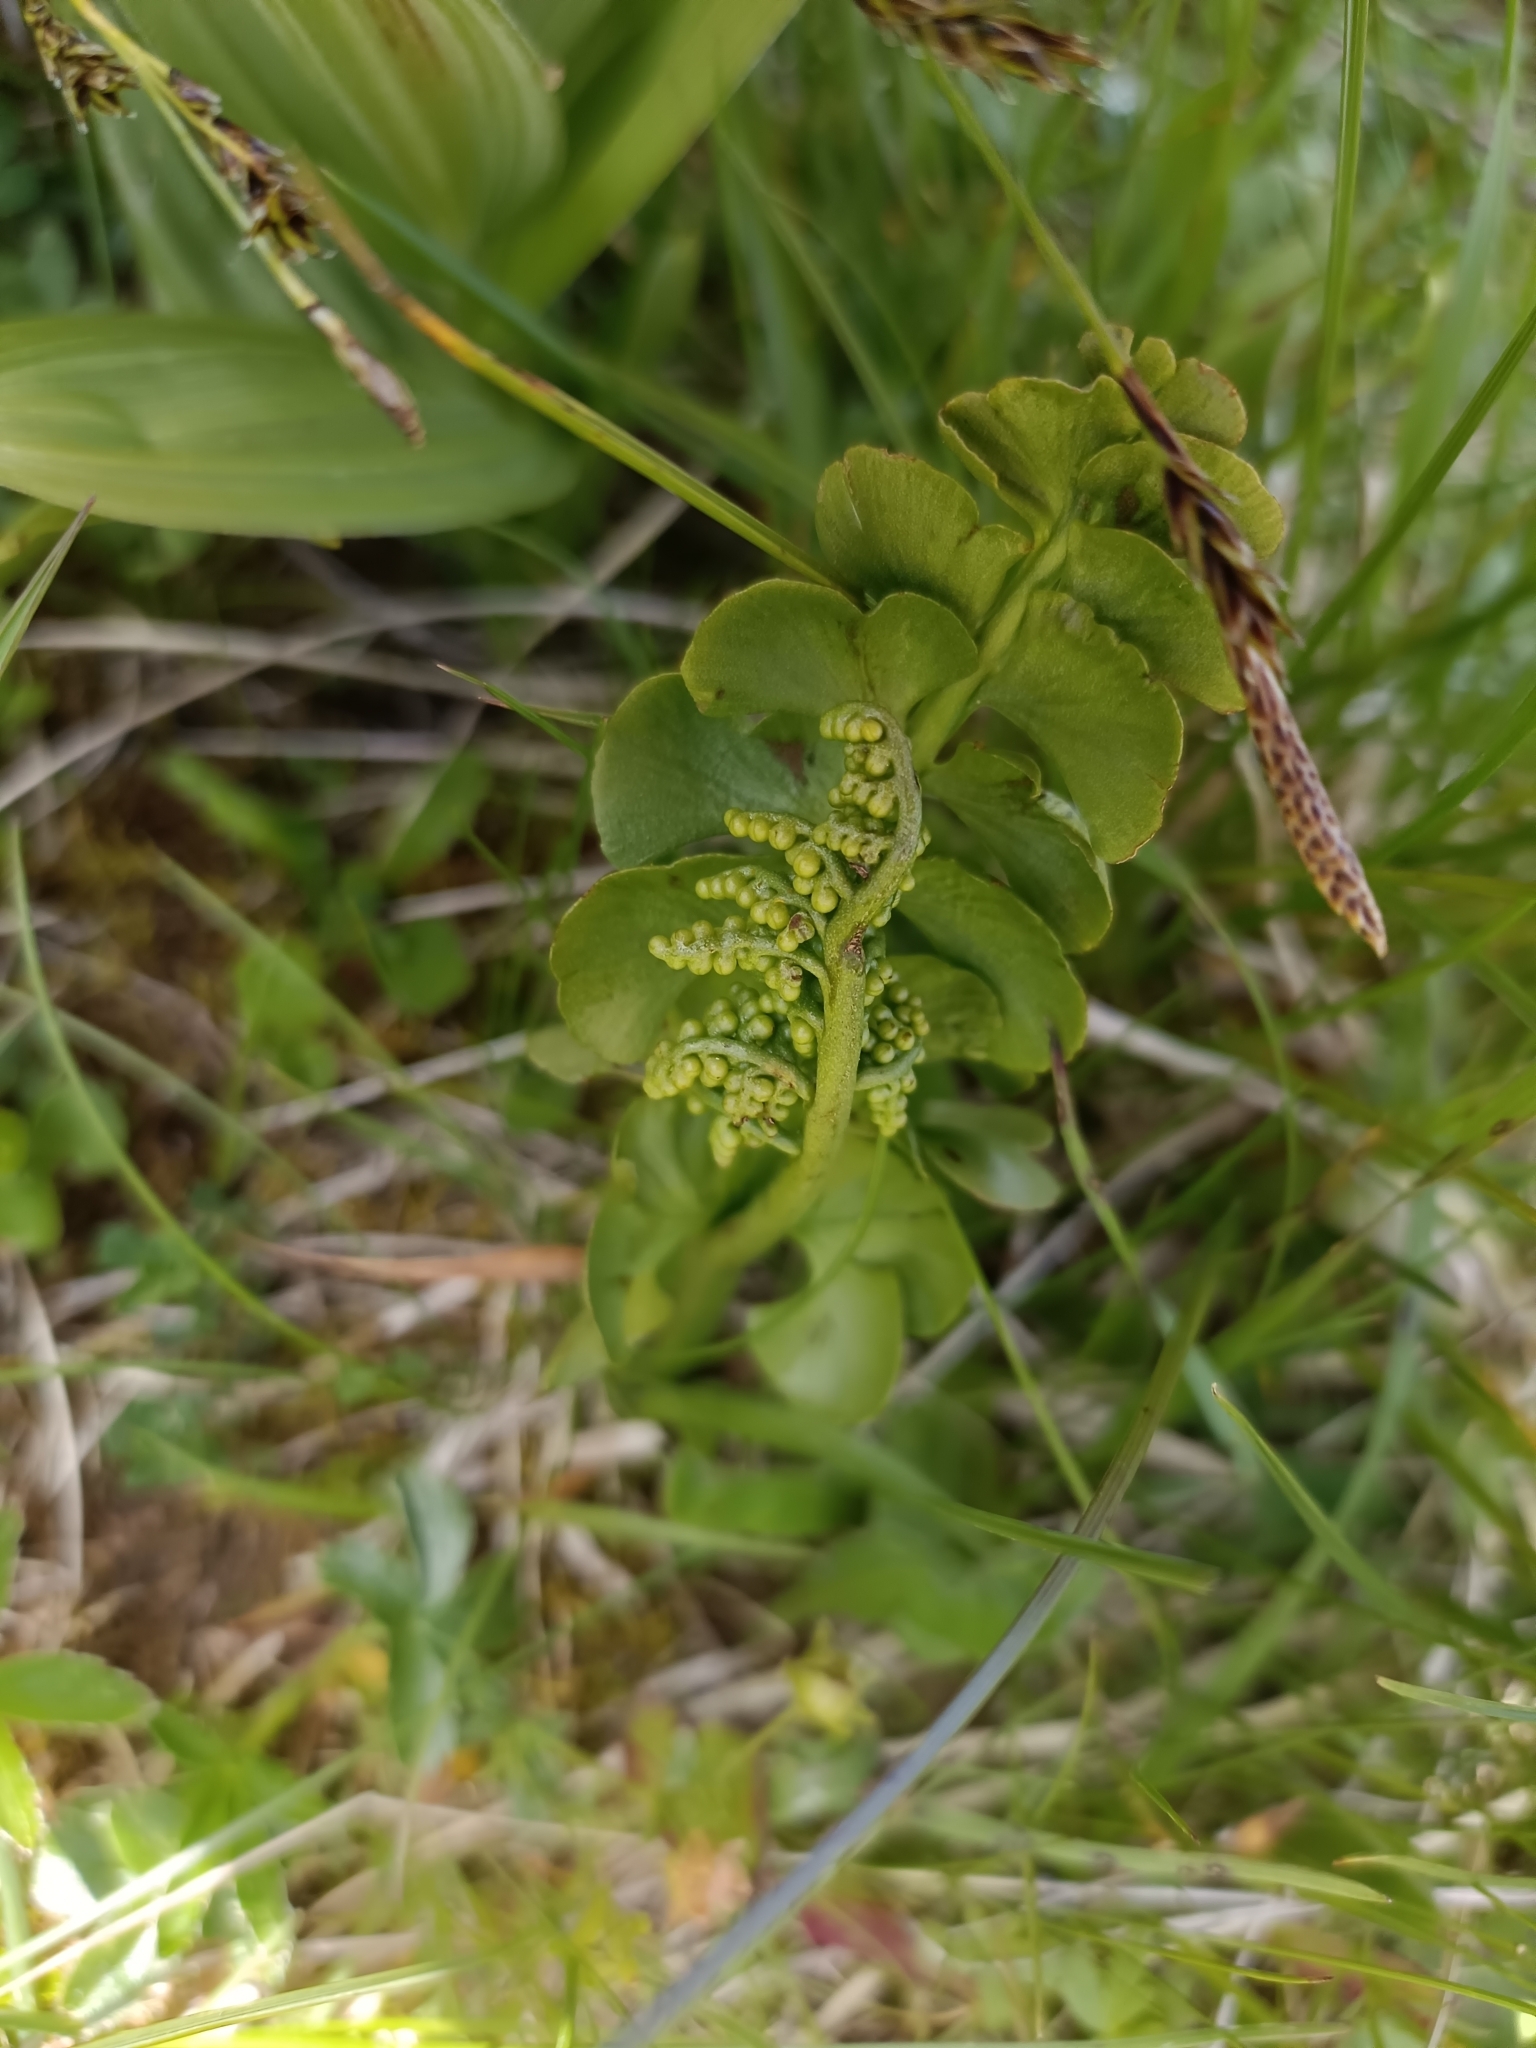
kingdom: Plantae
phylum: Tracheophyta
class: Polypodiopsida
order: Ophioglossales
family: Ophioglossaceae
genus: Botrychium
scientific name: Botrychium lunaria
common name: Moonwort
